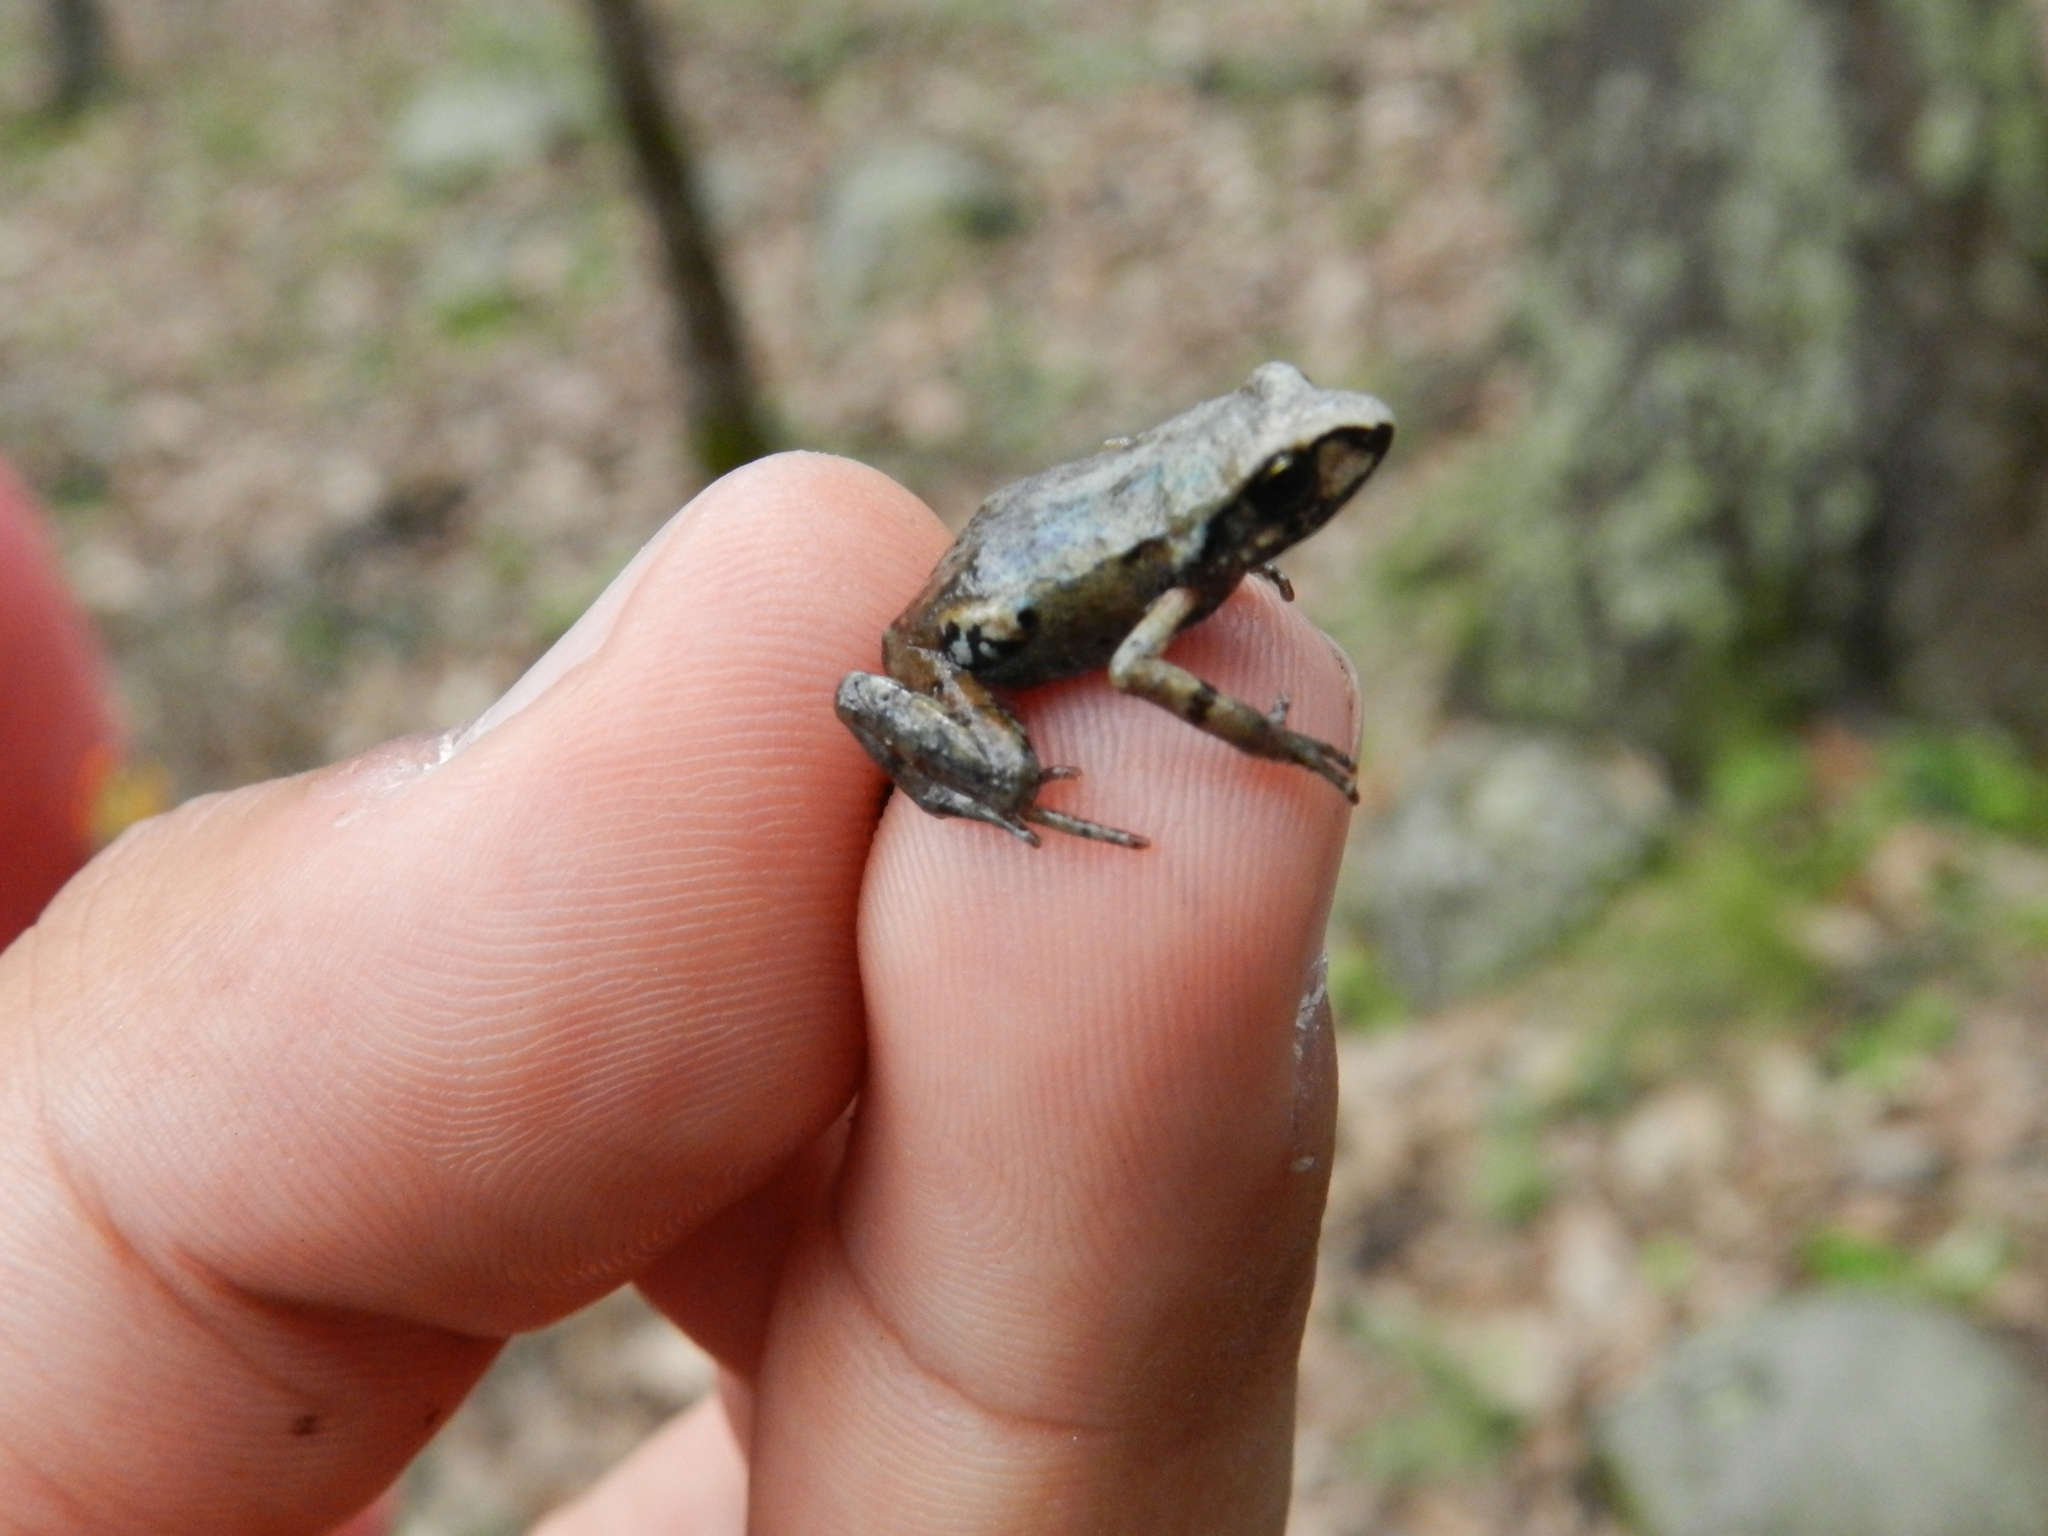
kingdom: Animalia
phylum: Chordata
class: Amphibia
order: Anura
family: Eleutherodactylidae
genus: Eleutherodactylus
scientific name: Eleutherodactylus angustidigitorum
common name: Patzcuaro peeping frog
